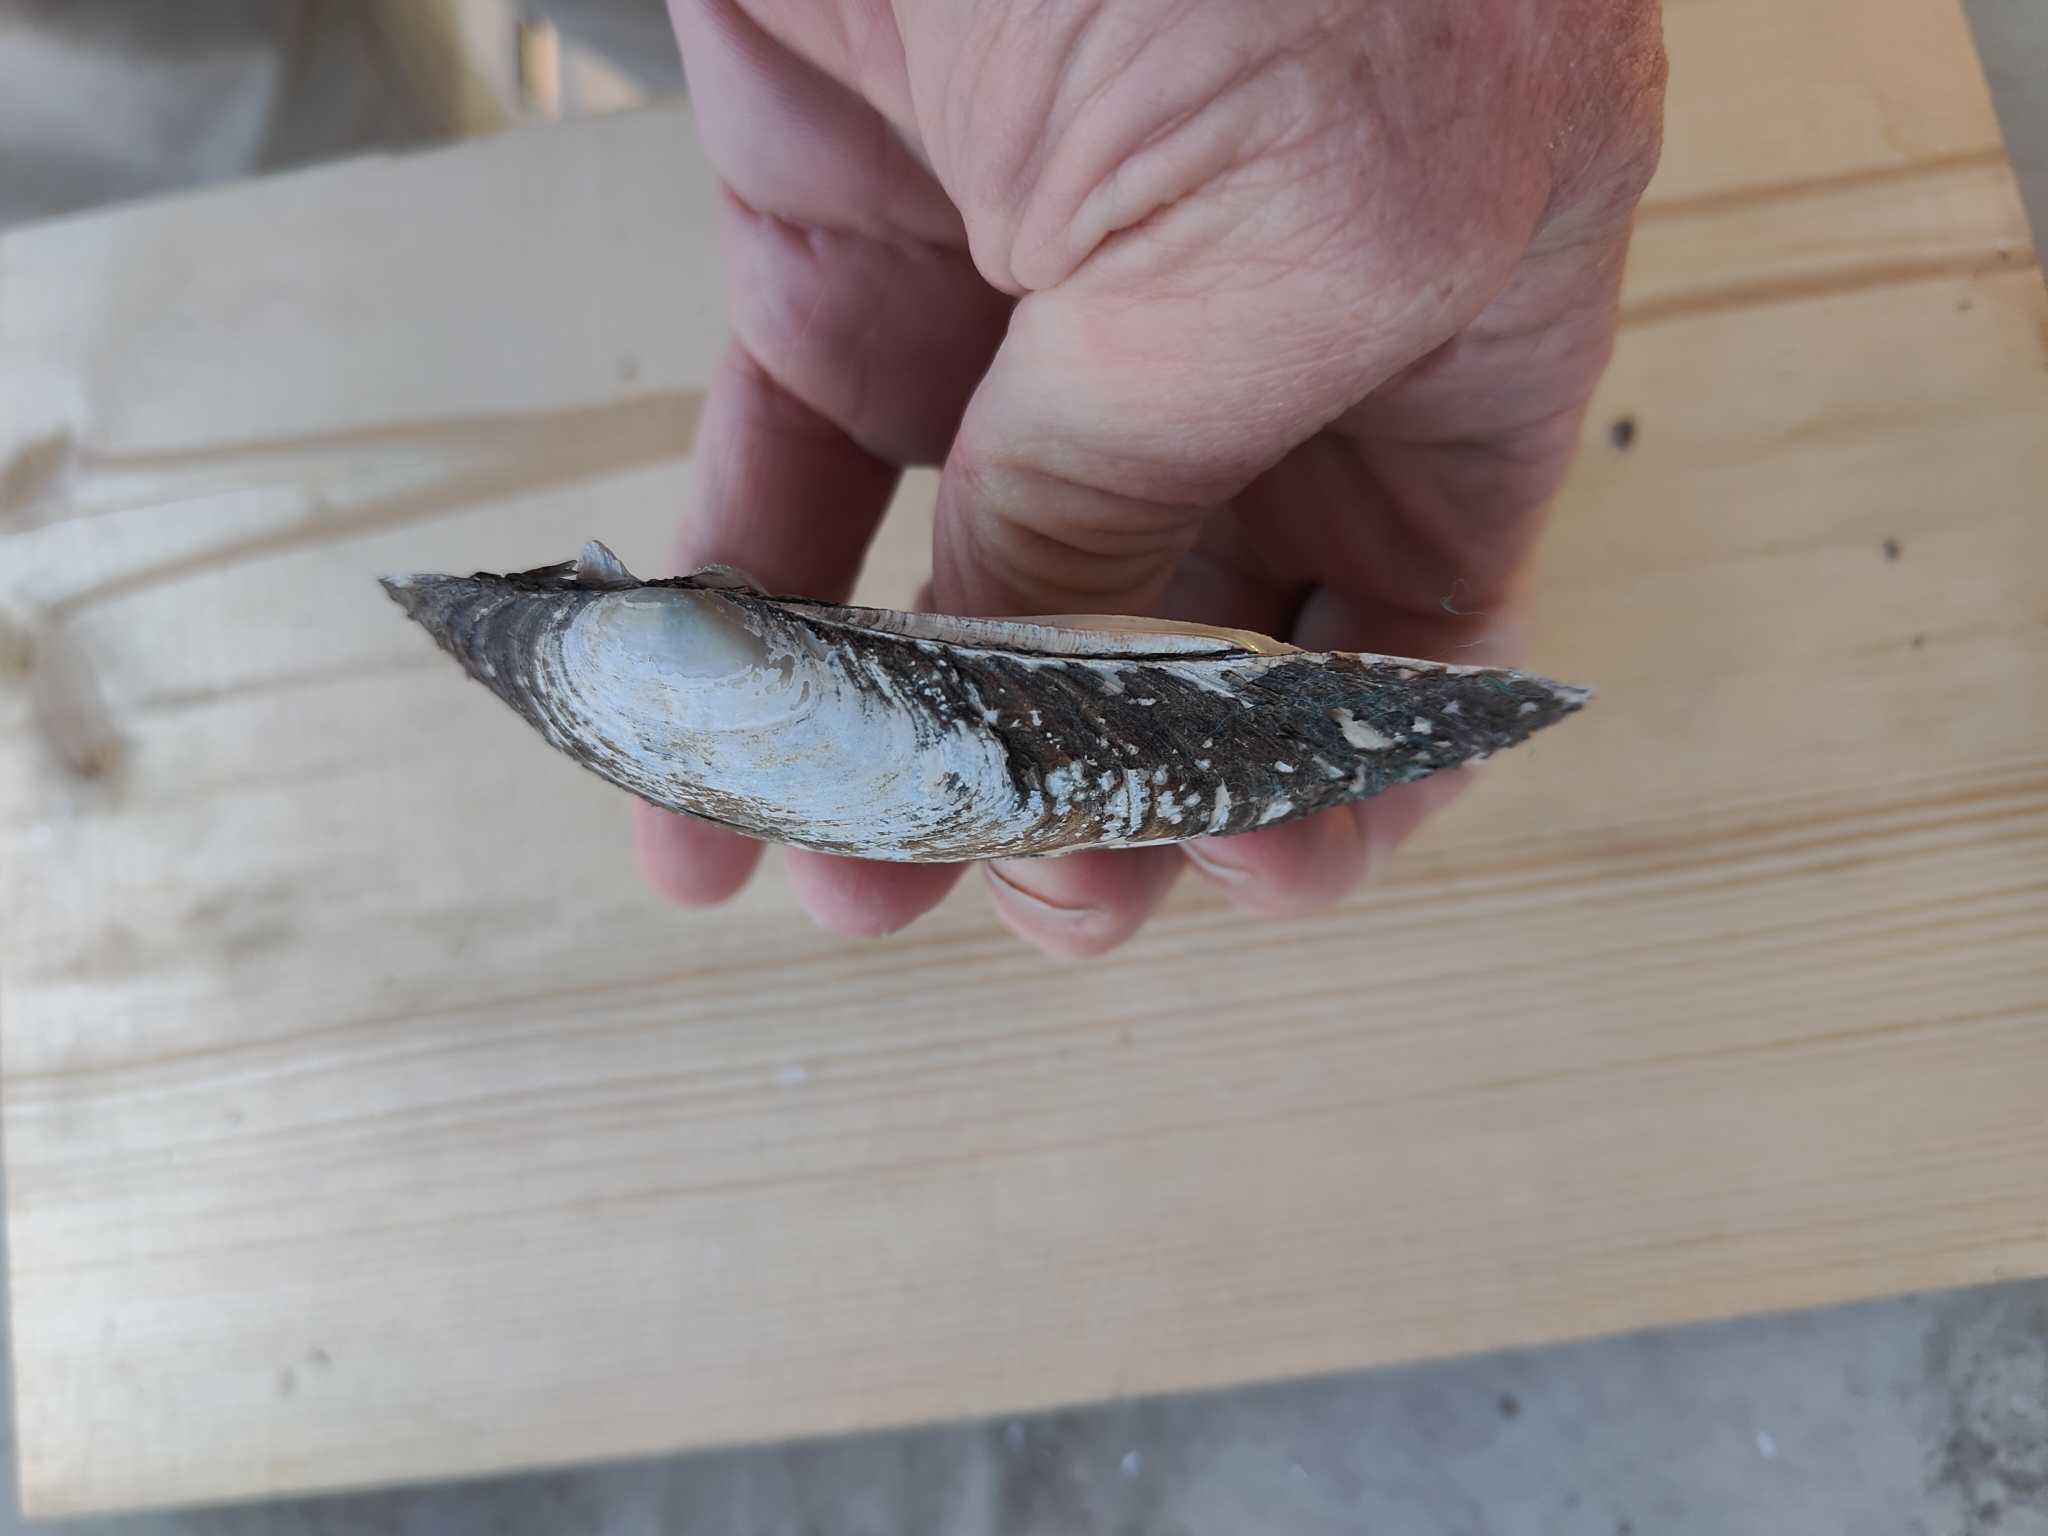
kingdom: Animalia
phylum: Mollusca
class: Bivalvia
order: Unionida
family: Unionidae
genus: Lampsilis
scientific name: Lampsilis siliquoidea
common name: Fatmucket
